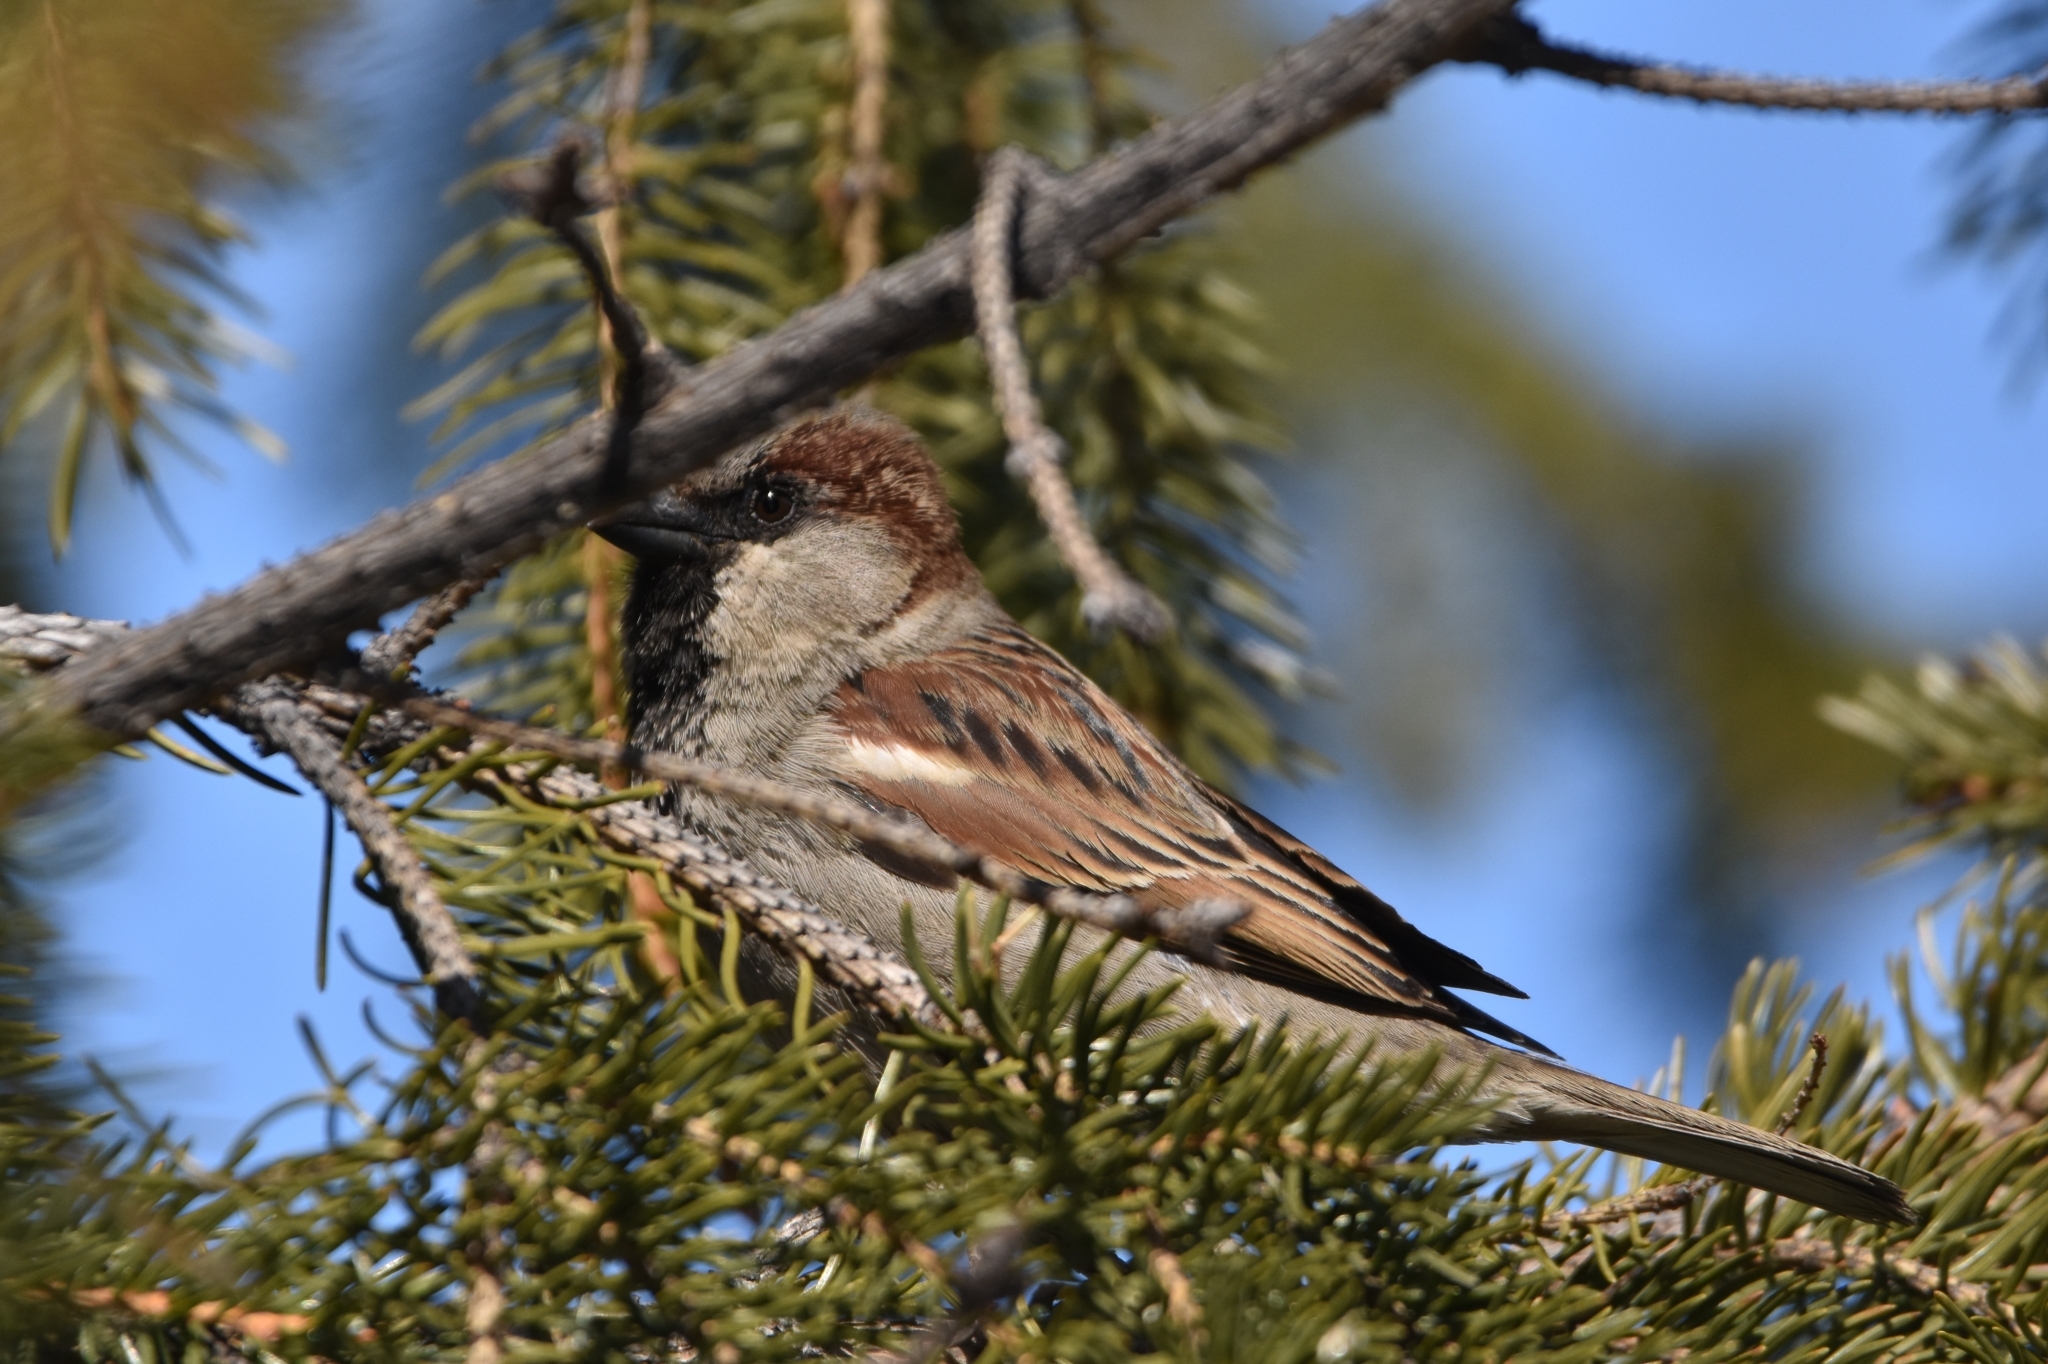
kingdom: Animalia
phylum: Chordata
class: Aves
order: Passeriformes
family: Passeridae
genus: Passer
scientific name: Passer domesticus
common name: House sparrow
